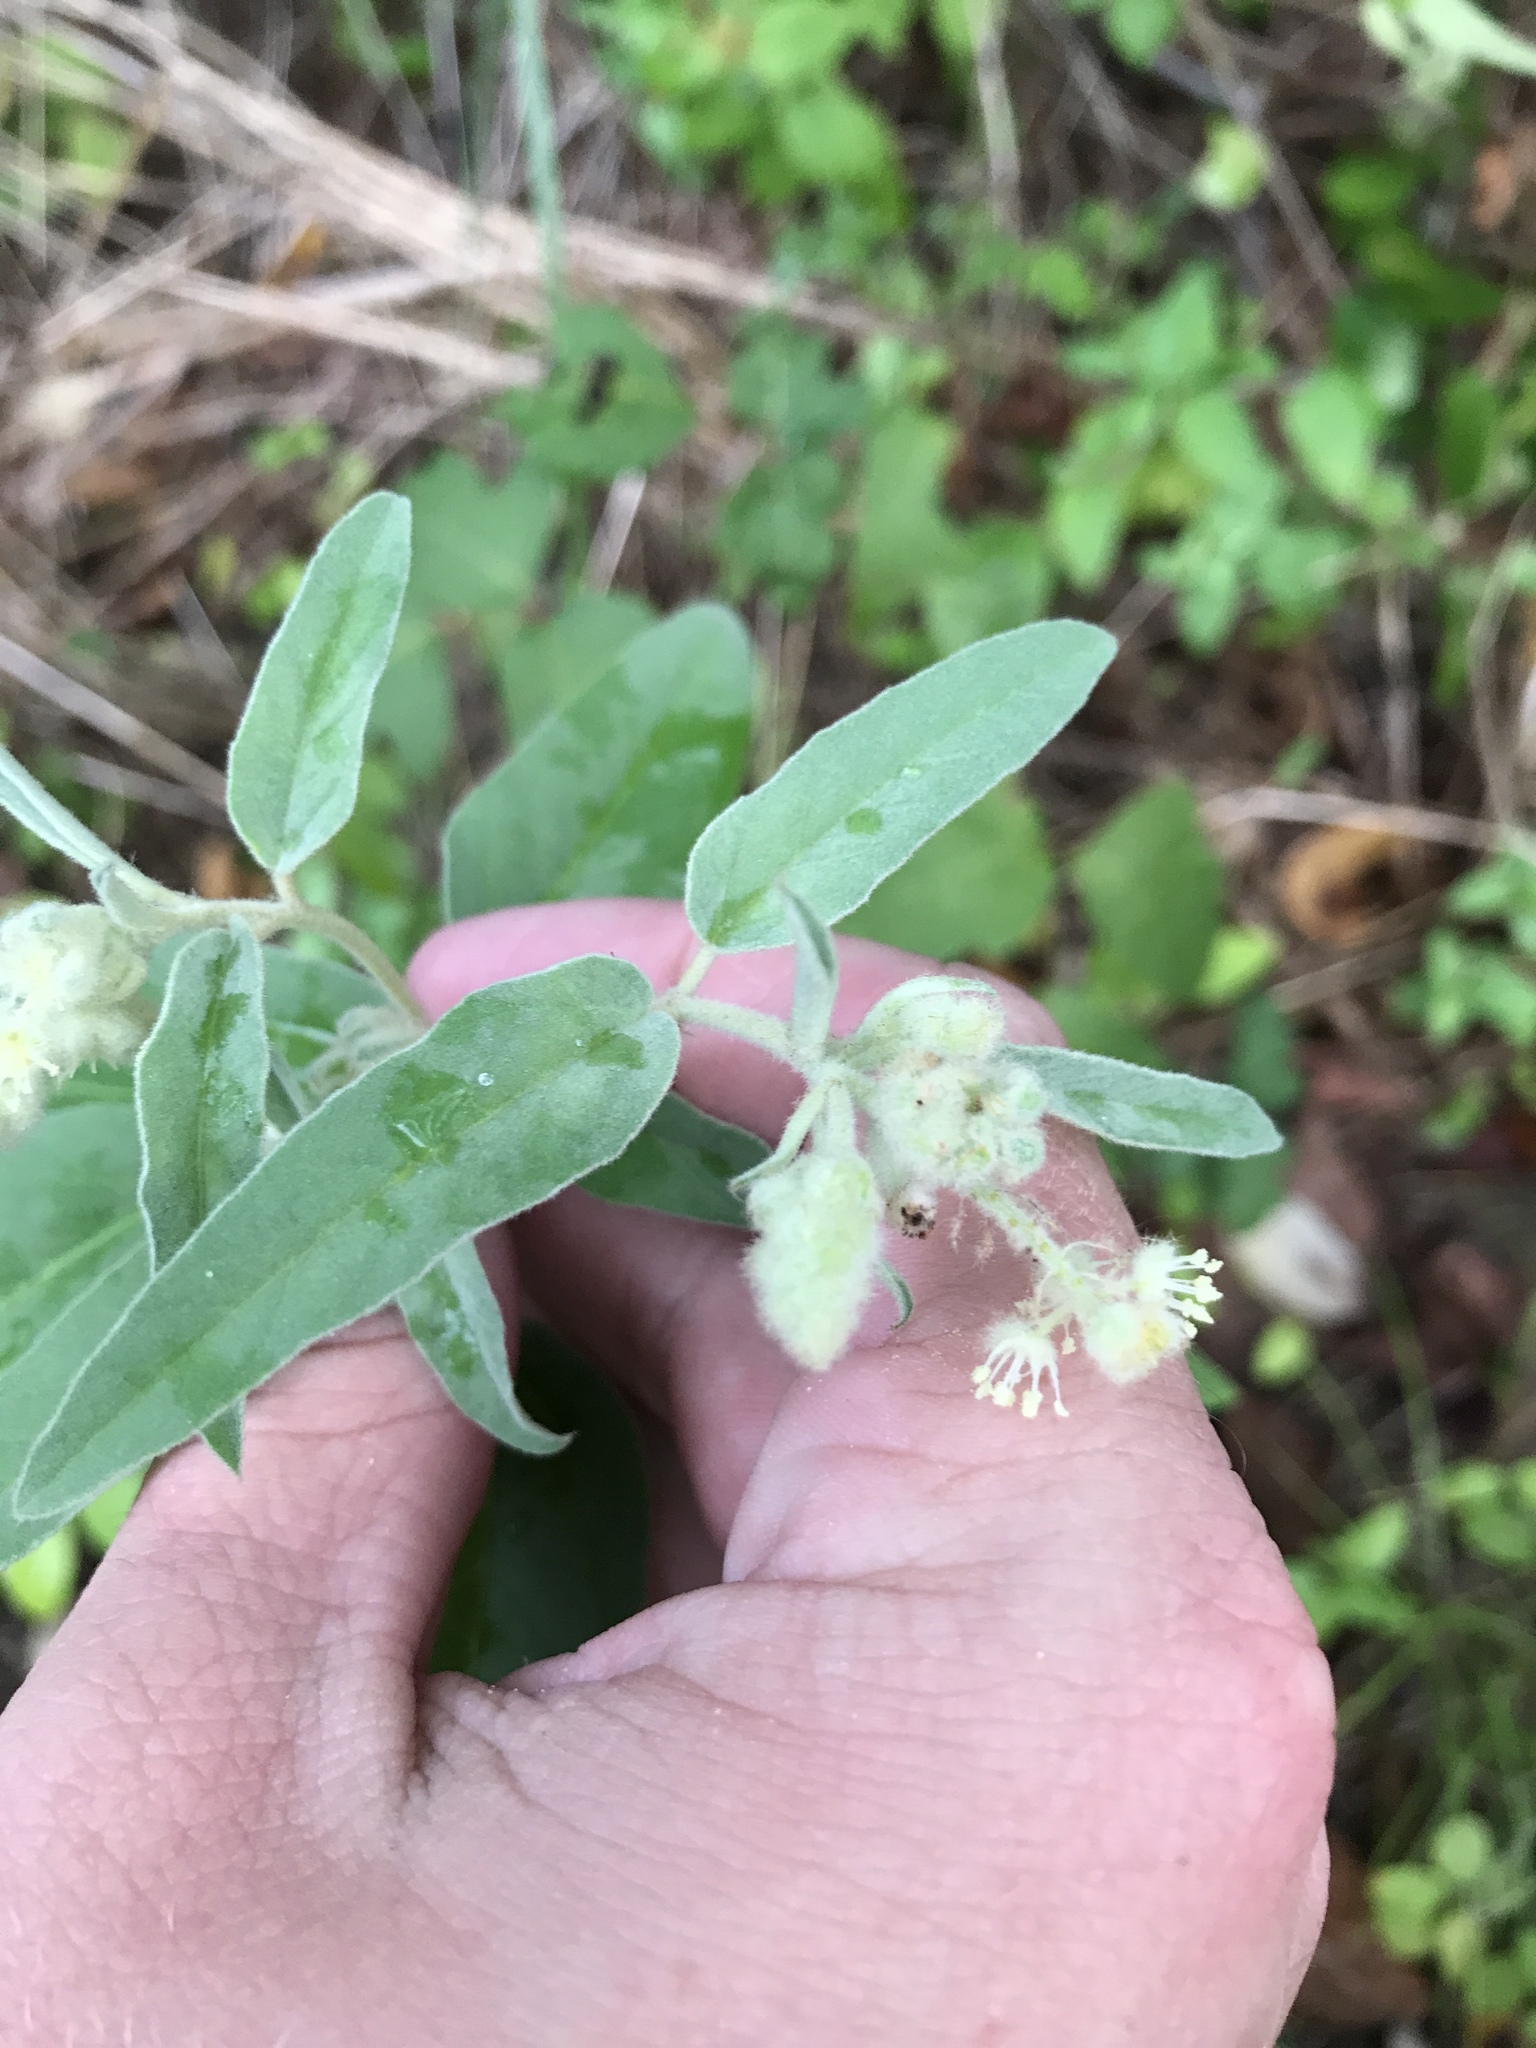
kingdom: Plantae
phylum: Tracheophyta
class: Magnoliopsida
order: Malpighiales
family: Euphorbiaceae
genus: Croton
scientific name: Croton lindheimeri
